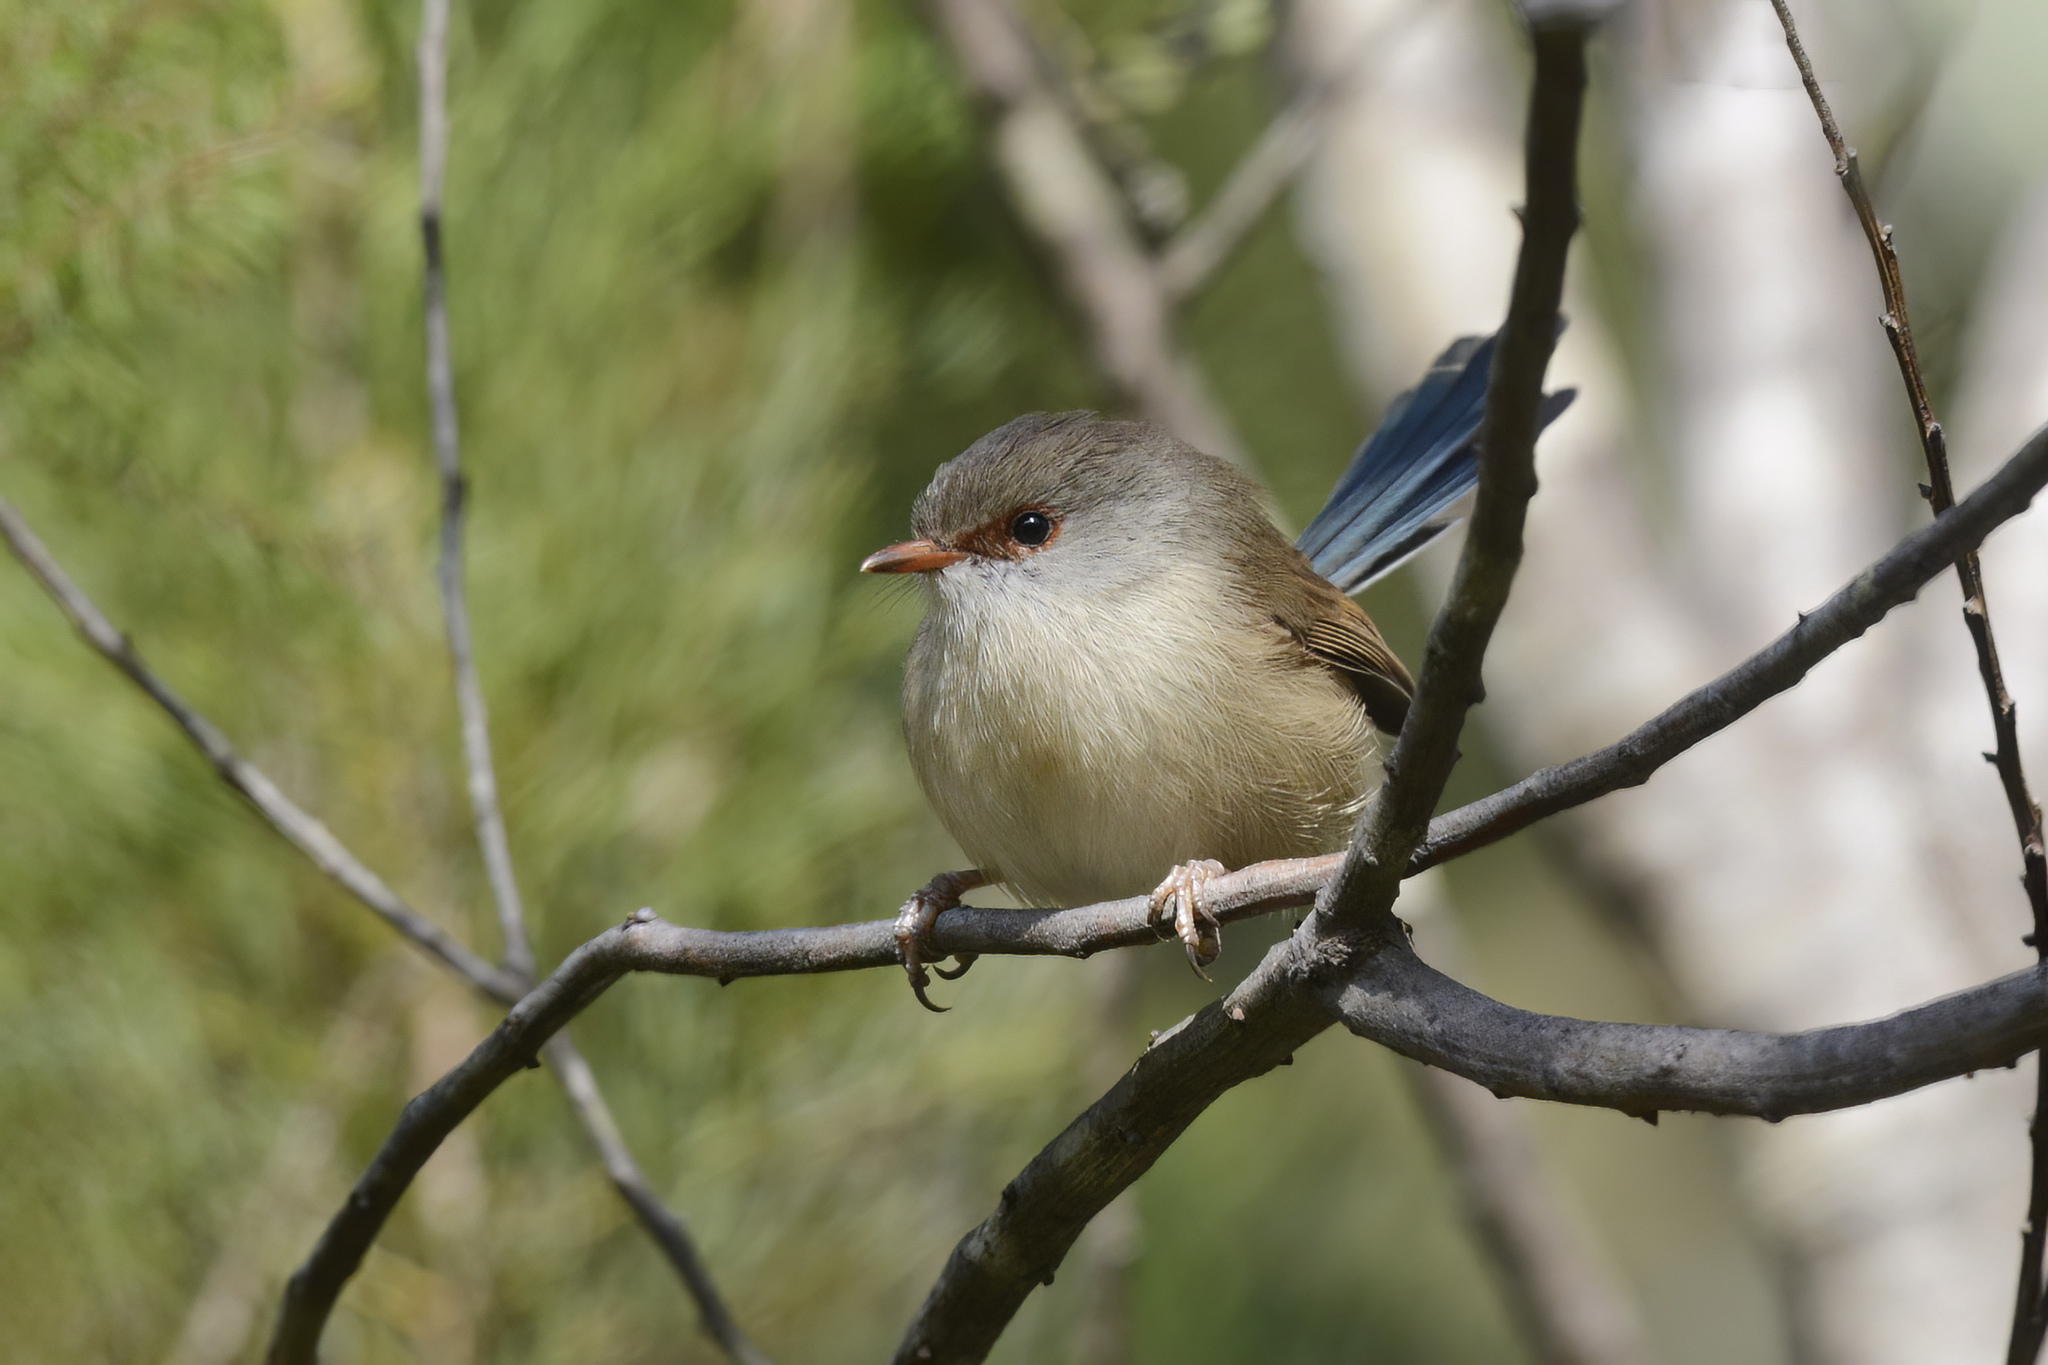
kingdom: Animalia
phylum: Chordata
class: Aves
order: Passeriformes
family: Maluridae
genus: Malurus
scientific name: Malurus lamberti
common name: Variegated fairywren
